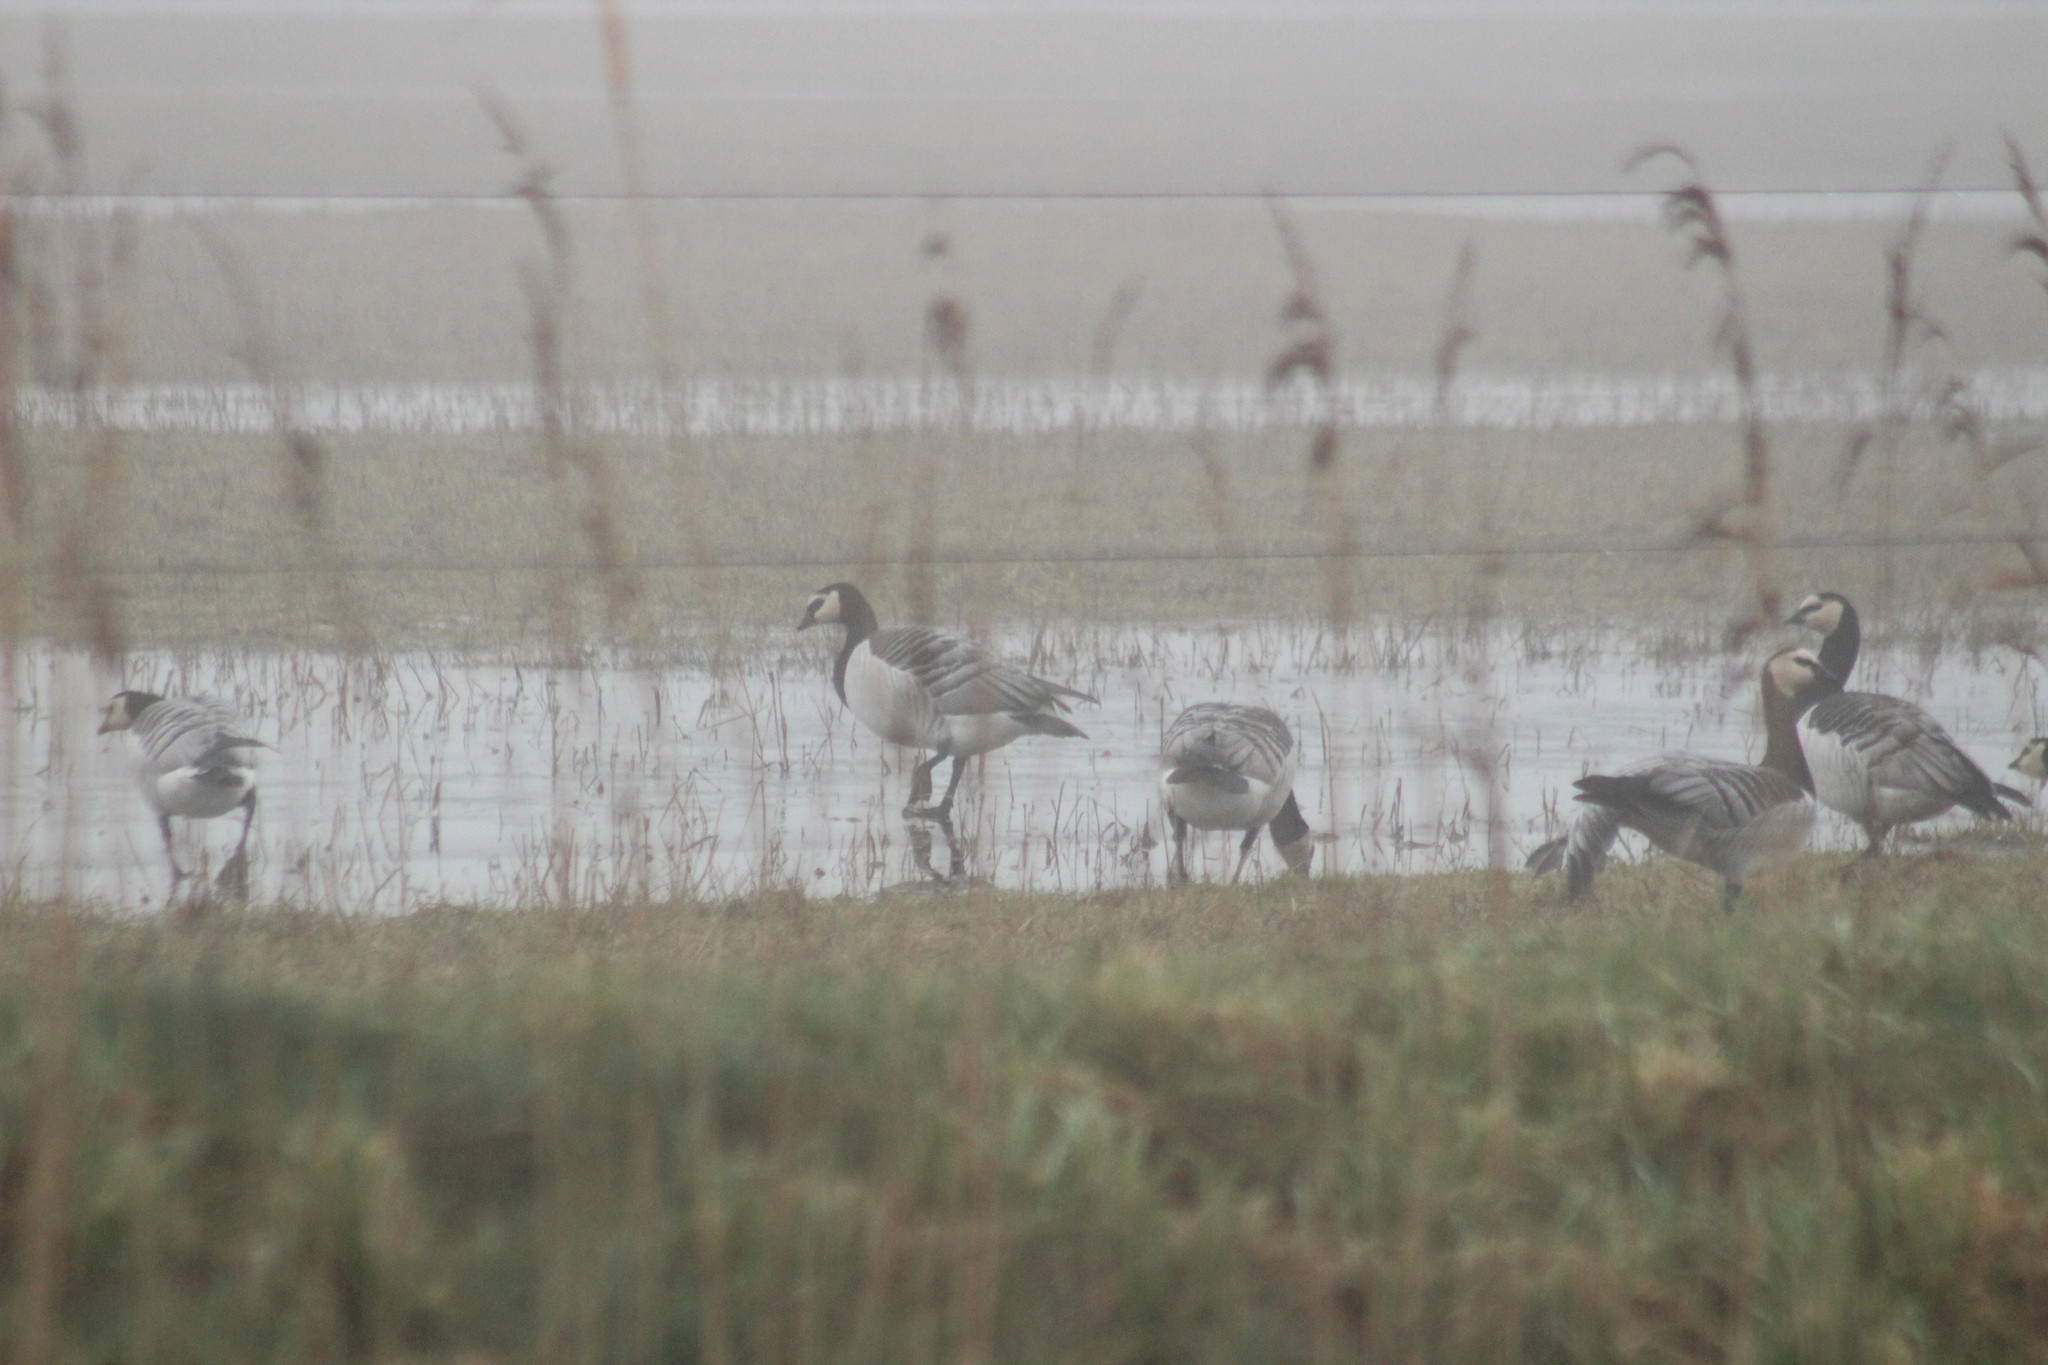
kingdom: Animalia
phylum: Chordata
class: Aves
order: Anseriformes
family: Anatidae
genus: Branta
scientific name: Branta leucopsis
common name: Barnacle goose
